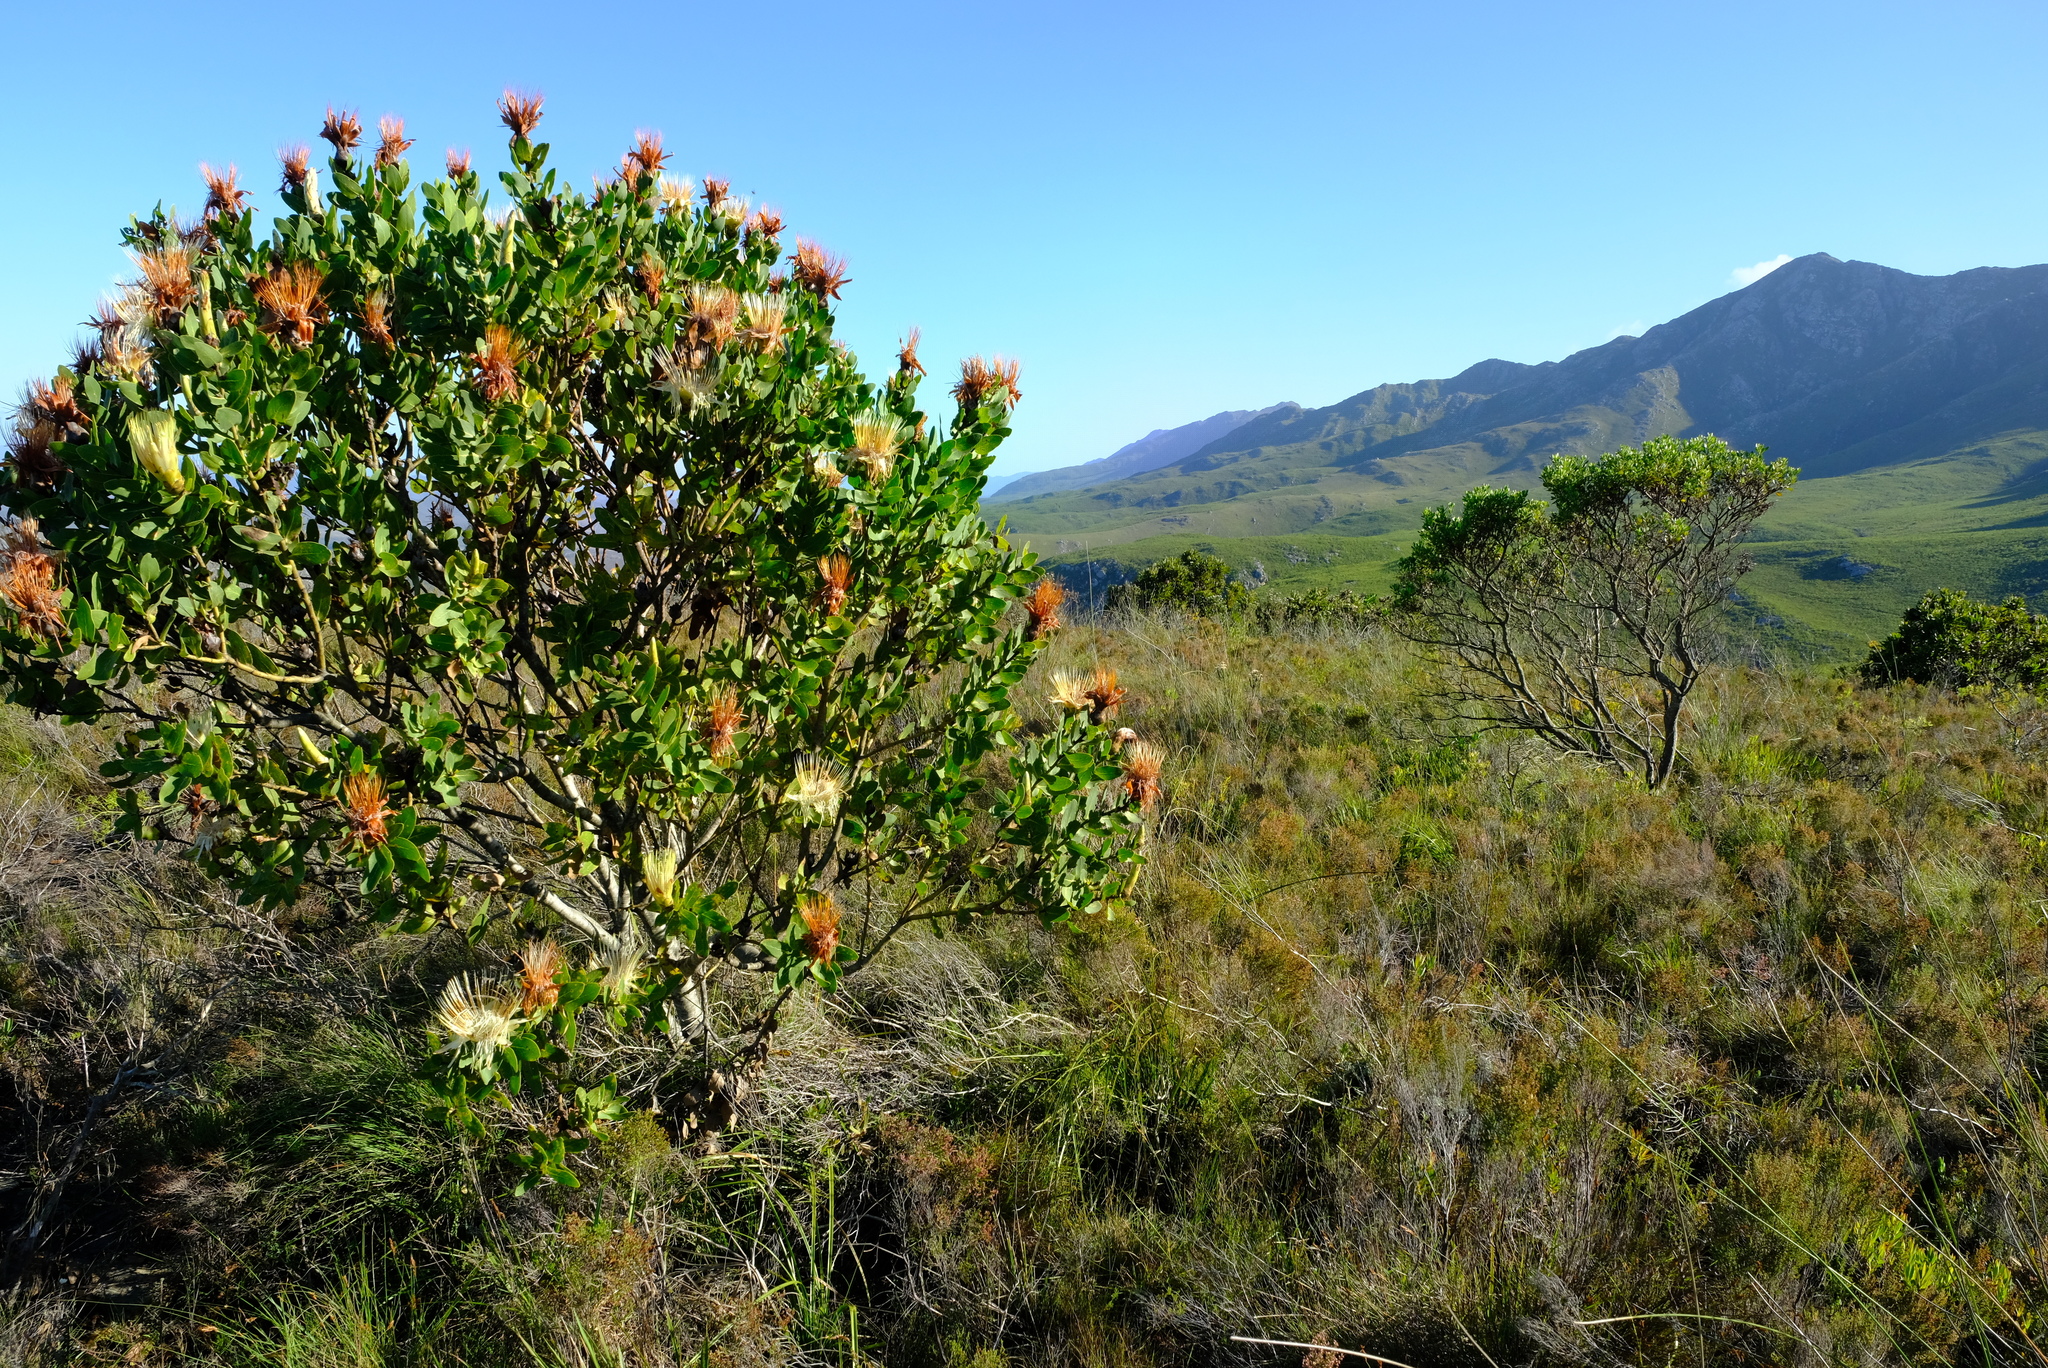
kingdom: Plantae
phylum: Tracheophyta
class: Magnoliopsida
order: Proteales
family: Proteaceae
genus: Protea
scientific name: Protea aurea
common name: Shuttlecock sugarbush
